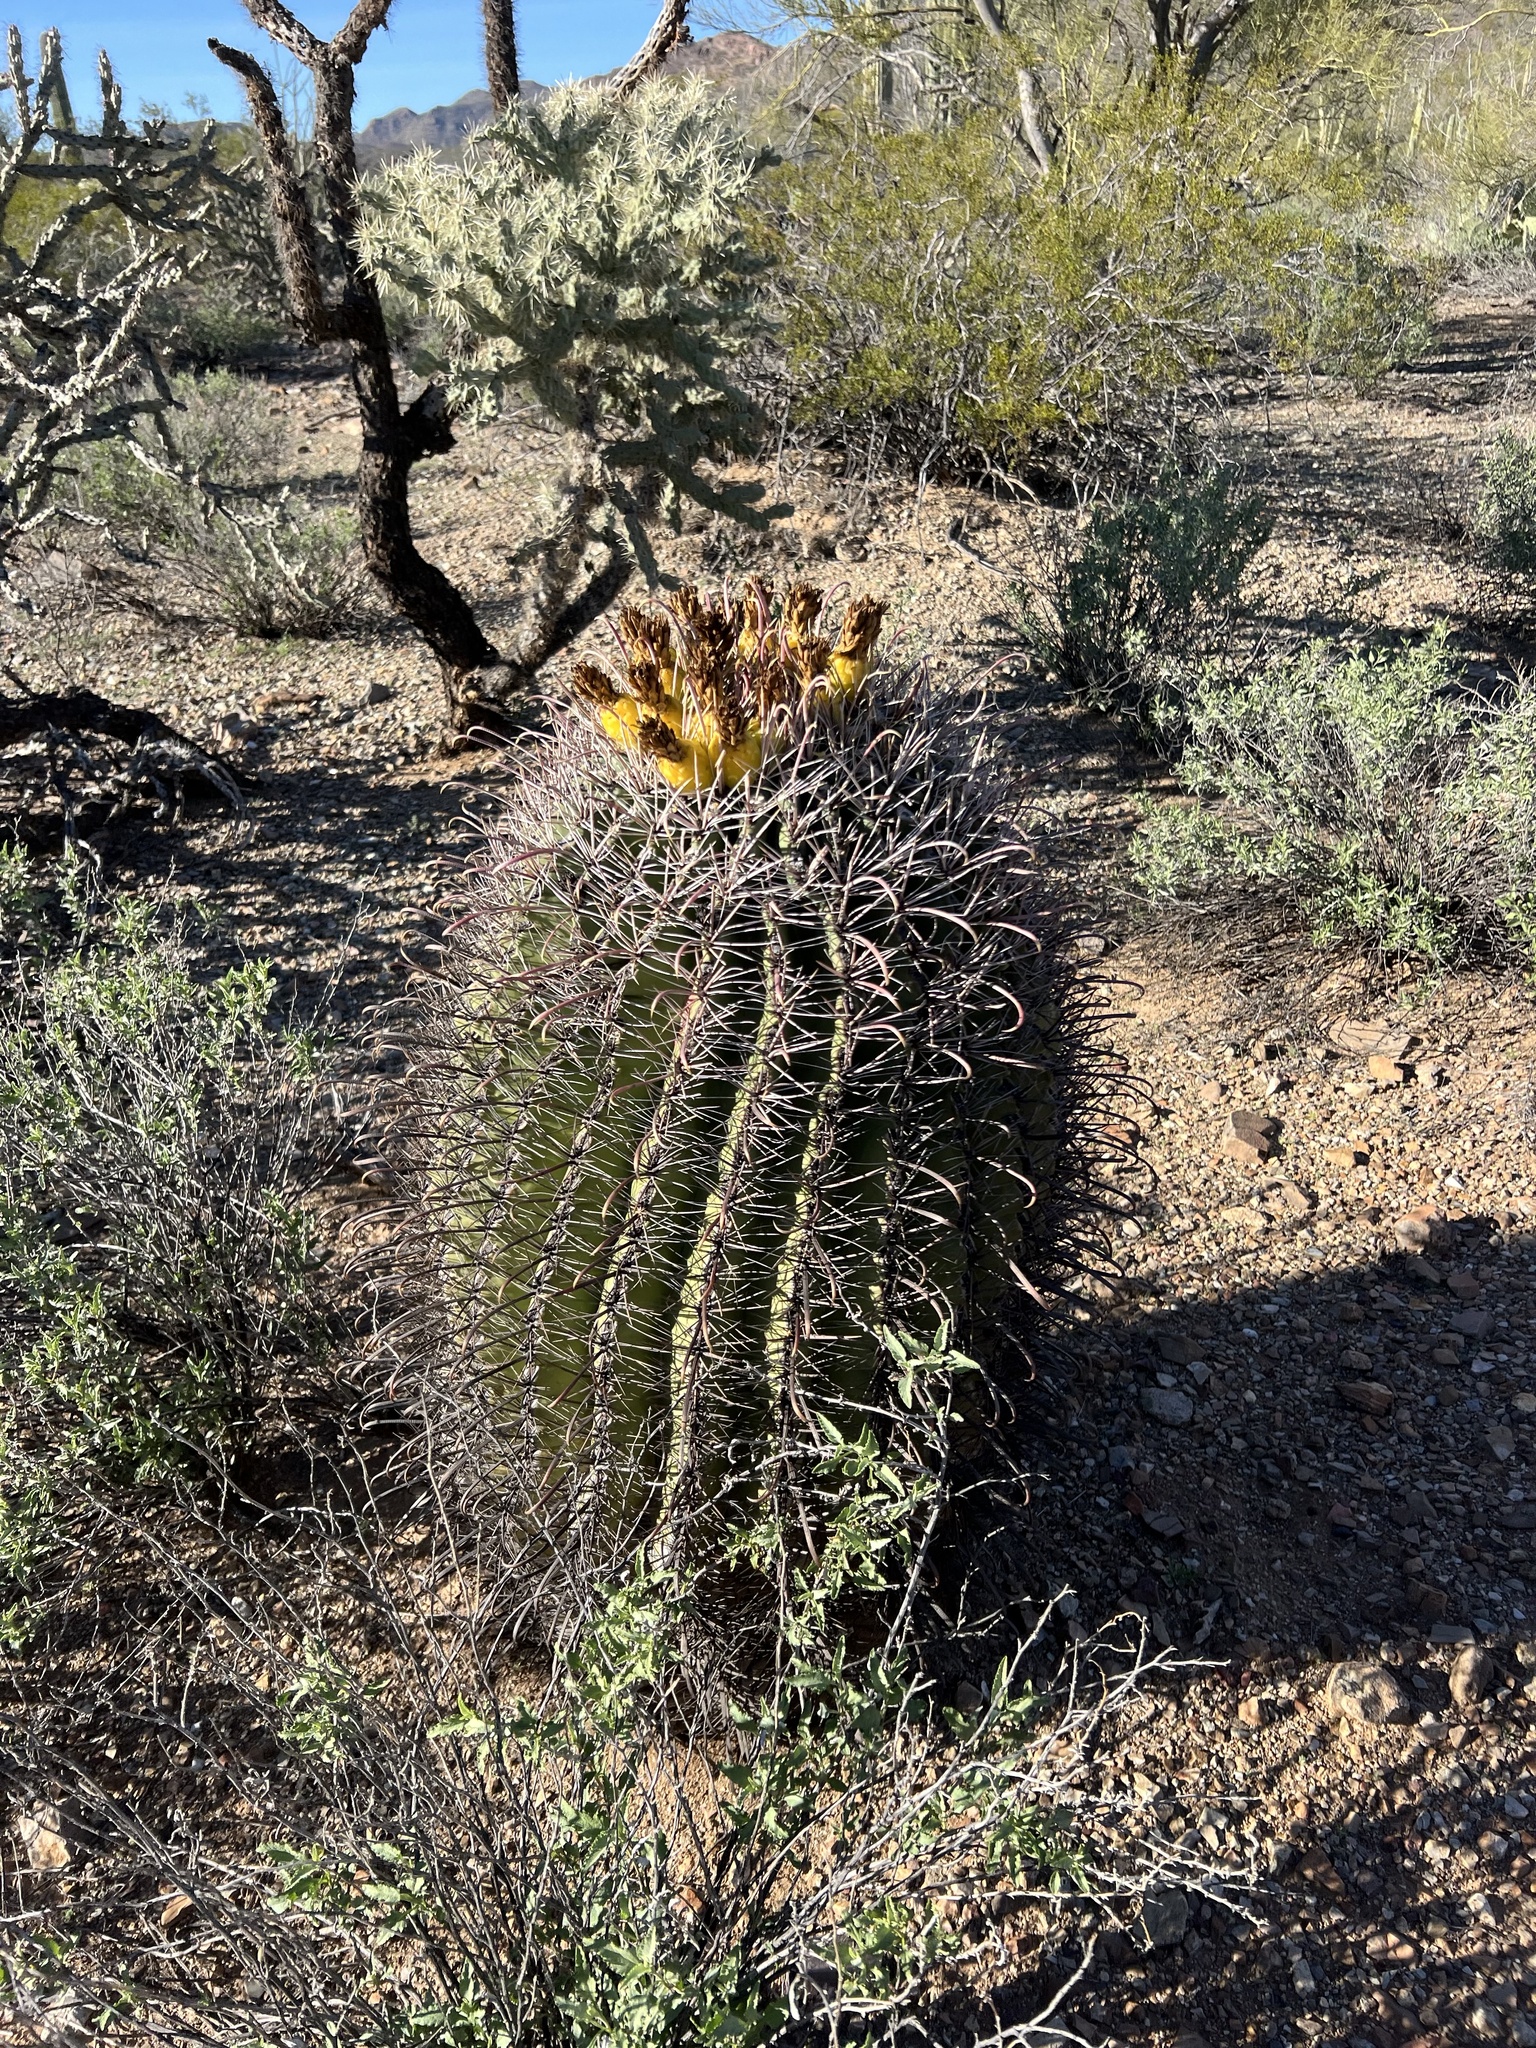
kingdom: Plantae
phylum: Tracheophyta
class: Magnoliopsida
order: Caryophyllales
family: Cactaceae
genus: Ferocactus
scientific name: Ferocactus wislizeni
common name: Candy barrel cactus
